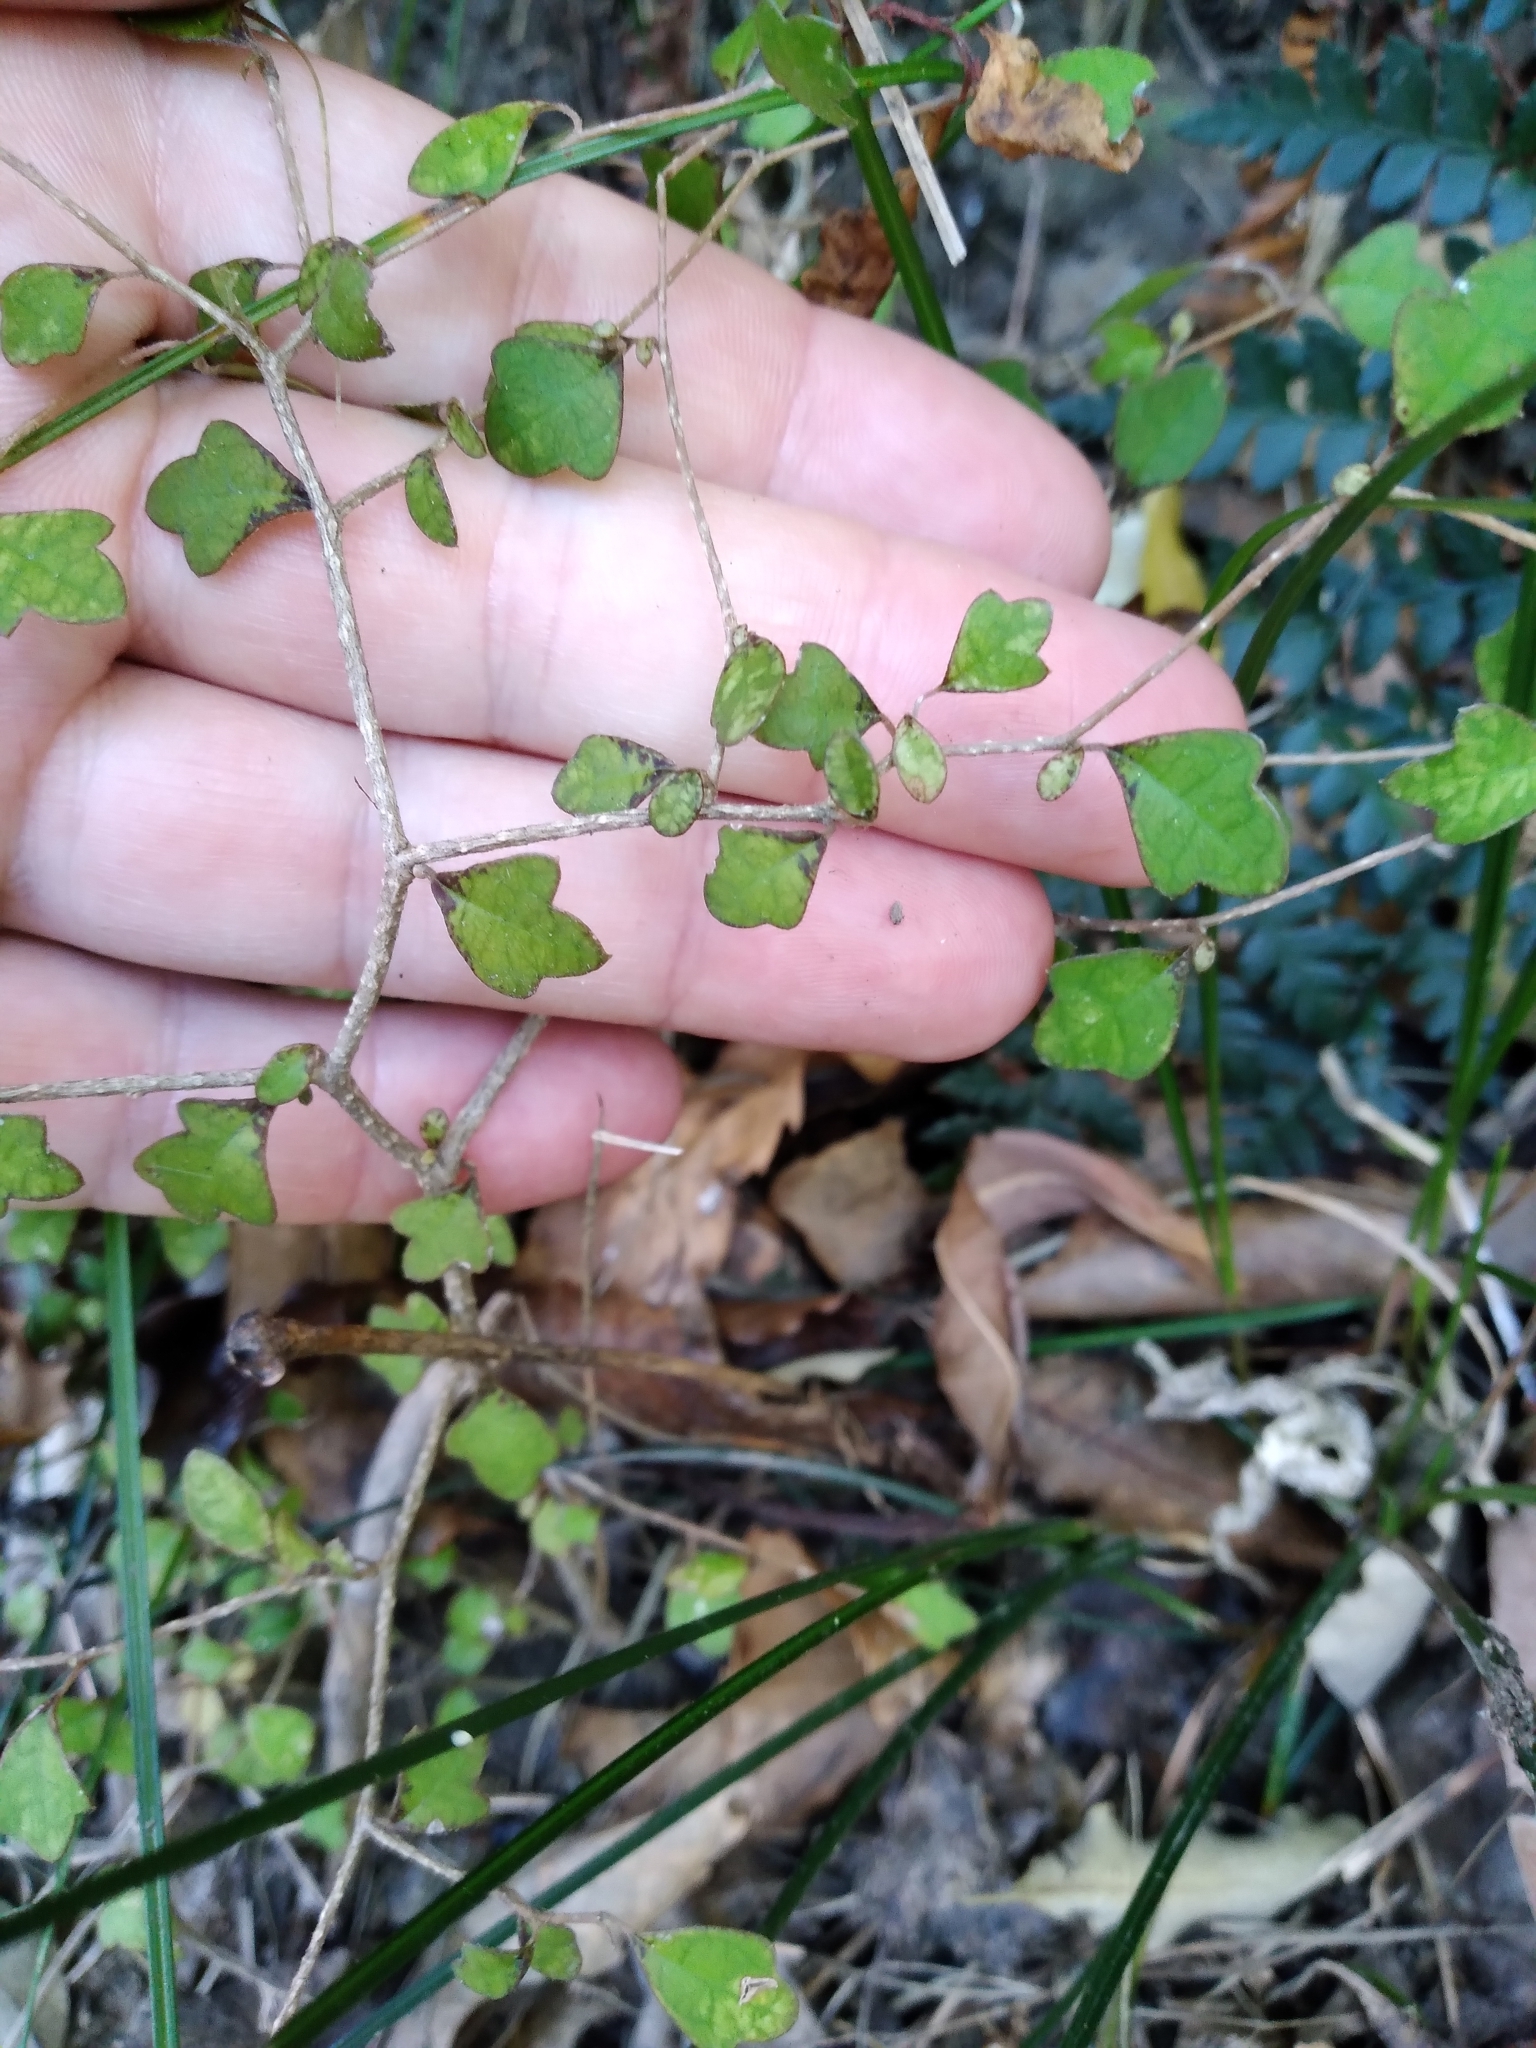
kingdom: Plantae
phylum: Tracheophyta
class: Magnoliopsida
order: Apiales
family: Pennantiaceae
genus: Pennantia
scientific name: Pennantia corymbosa
